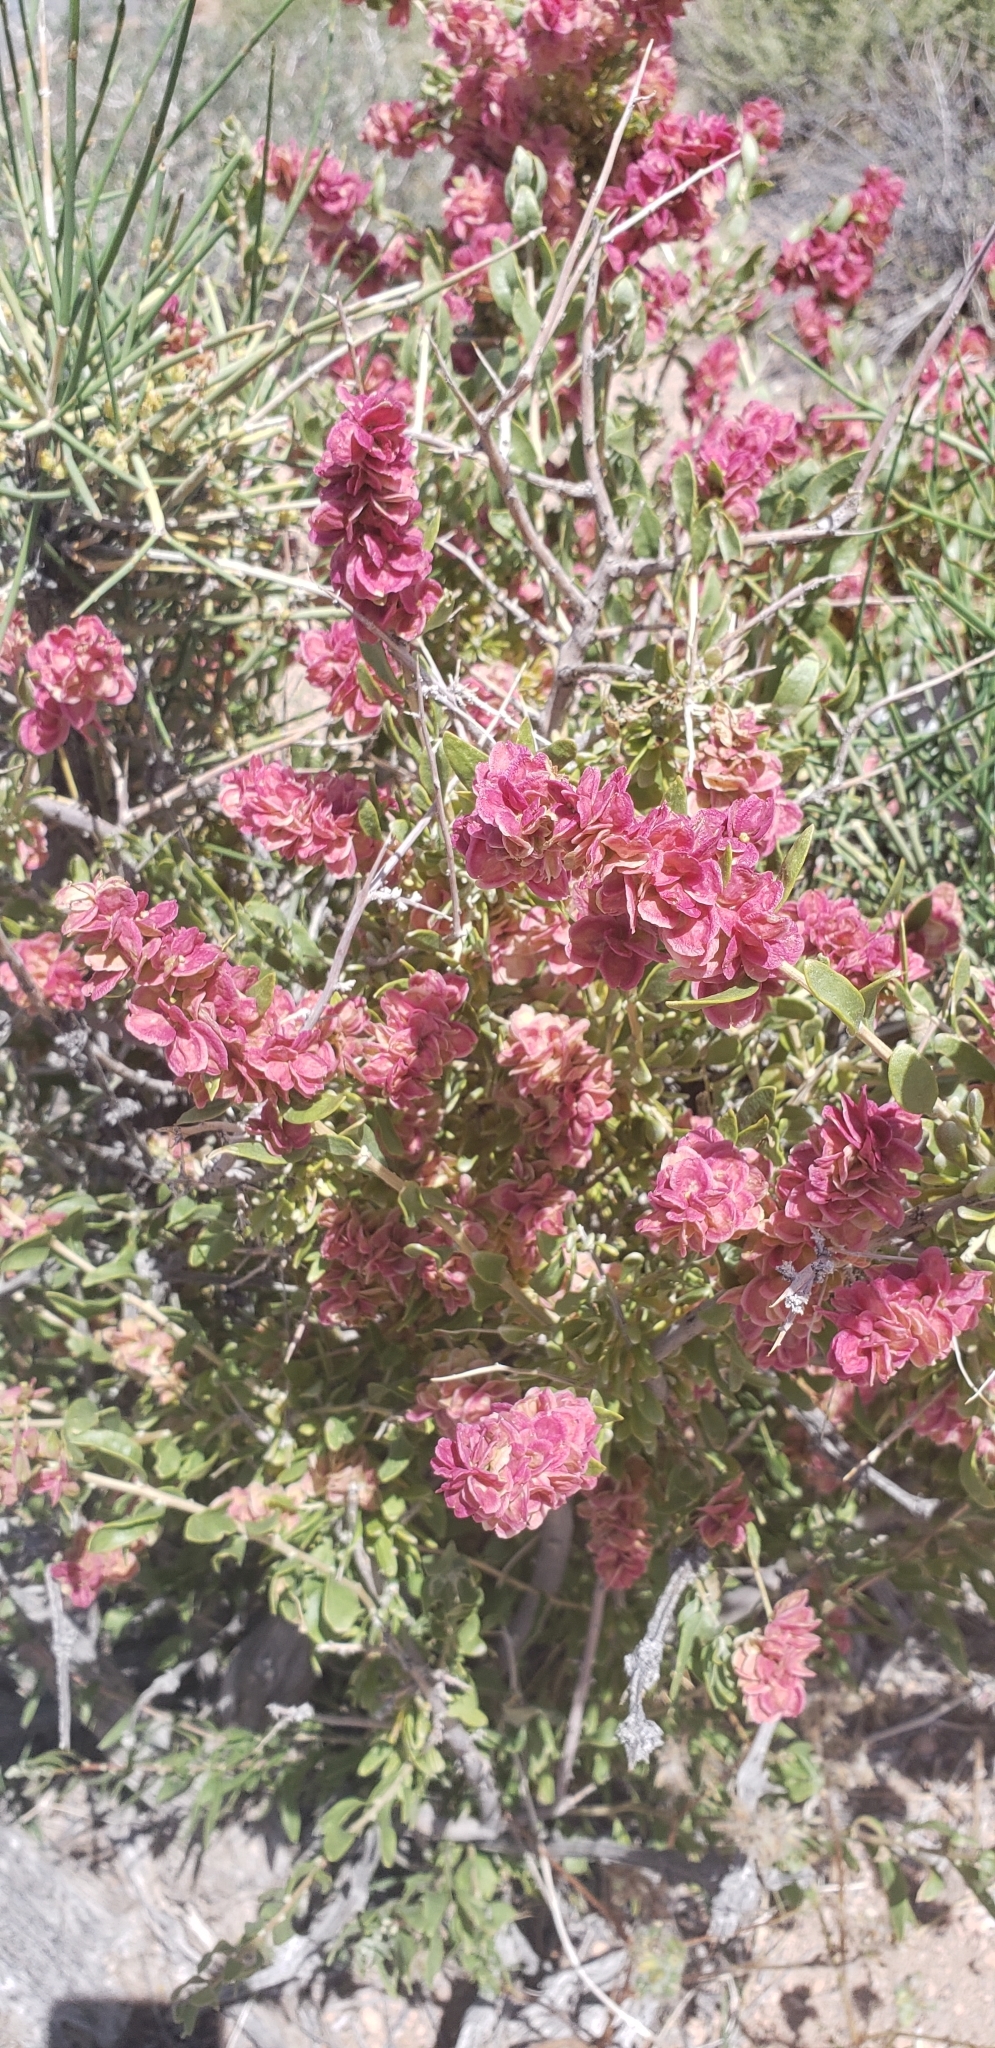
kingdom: Plantae
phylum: Tracheophyta
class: Magnoliopsida
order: Caryophyllales
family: Amaranthaceae
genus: Grayia
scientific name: Grayia spinosa
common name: Spiny hopsage
